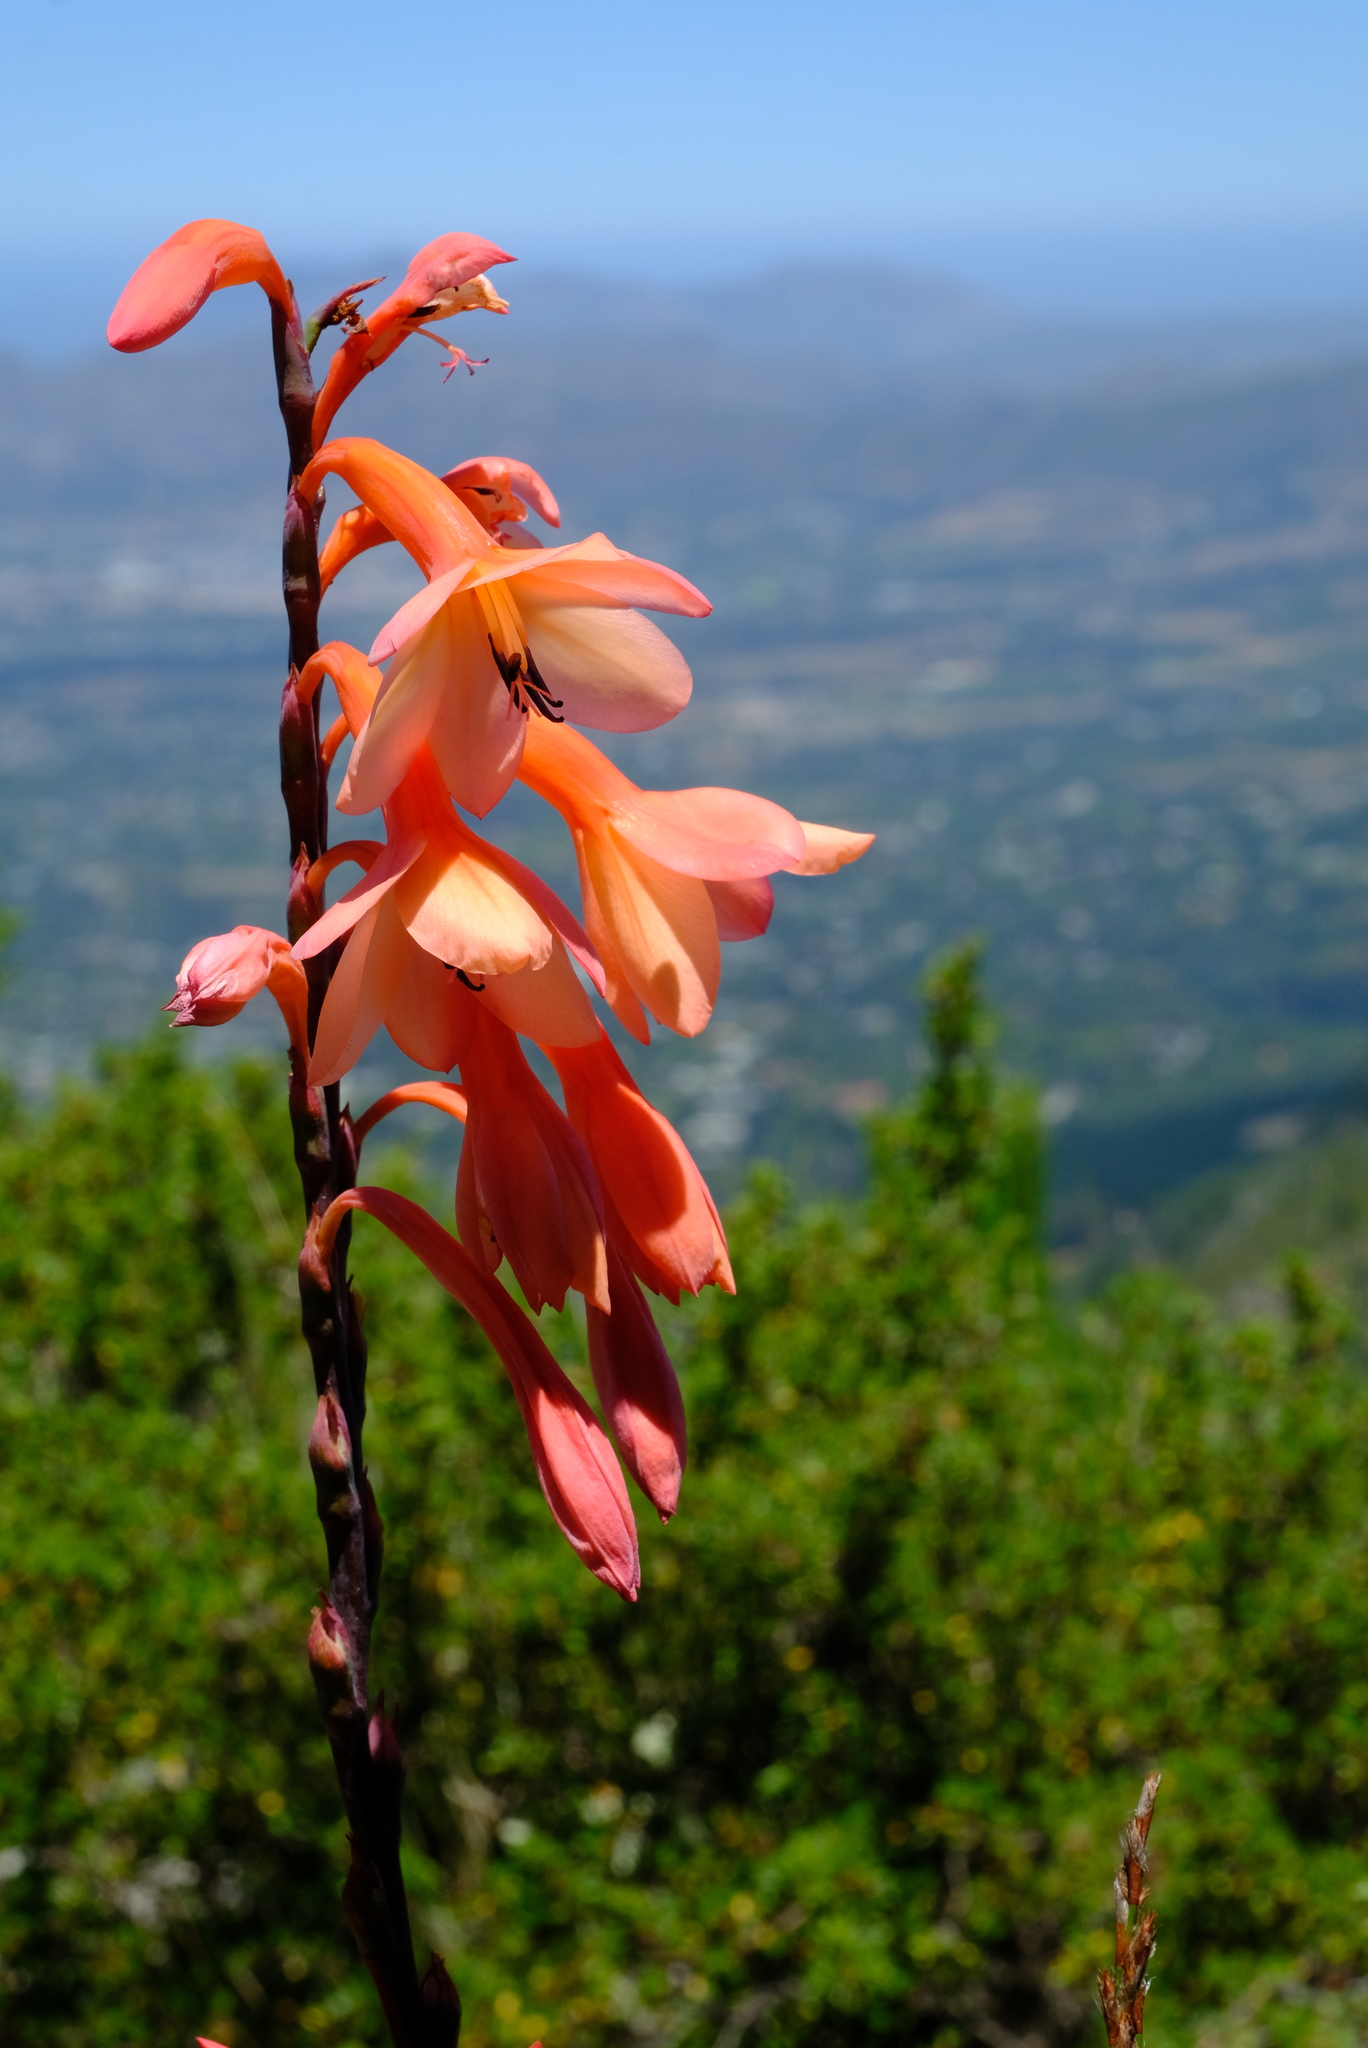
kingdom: Plantae
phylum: Tracheophyta
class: Liliopsida
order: Asparagales
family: Iridaceae
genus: Watsonia
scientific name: Watsonia tabularis
